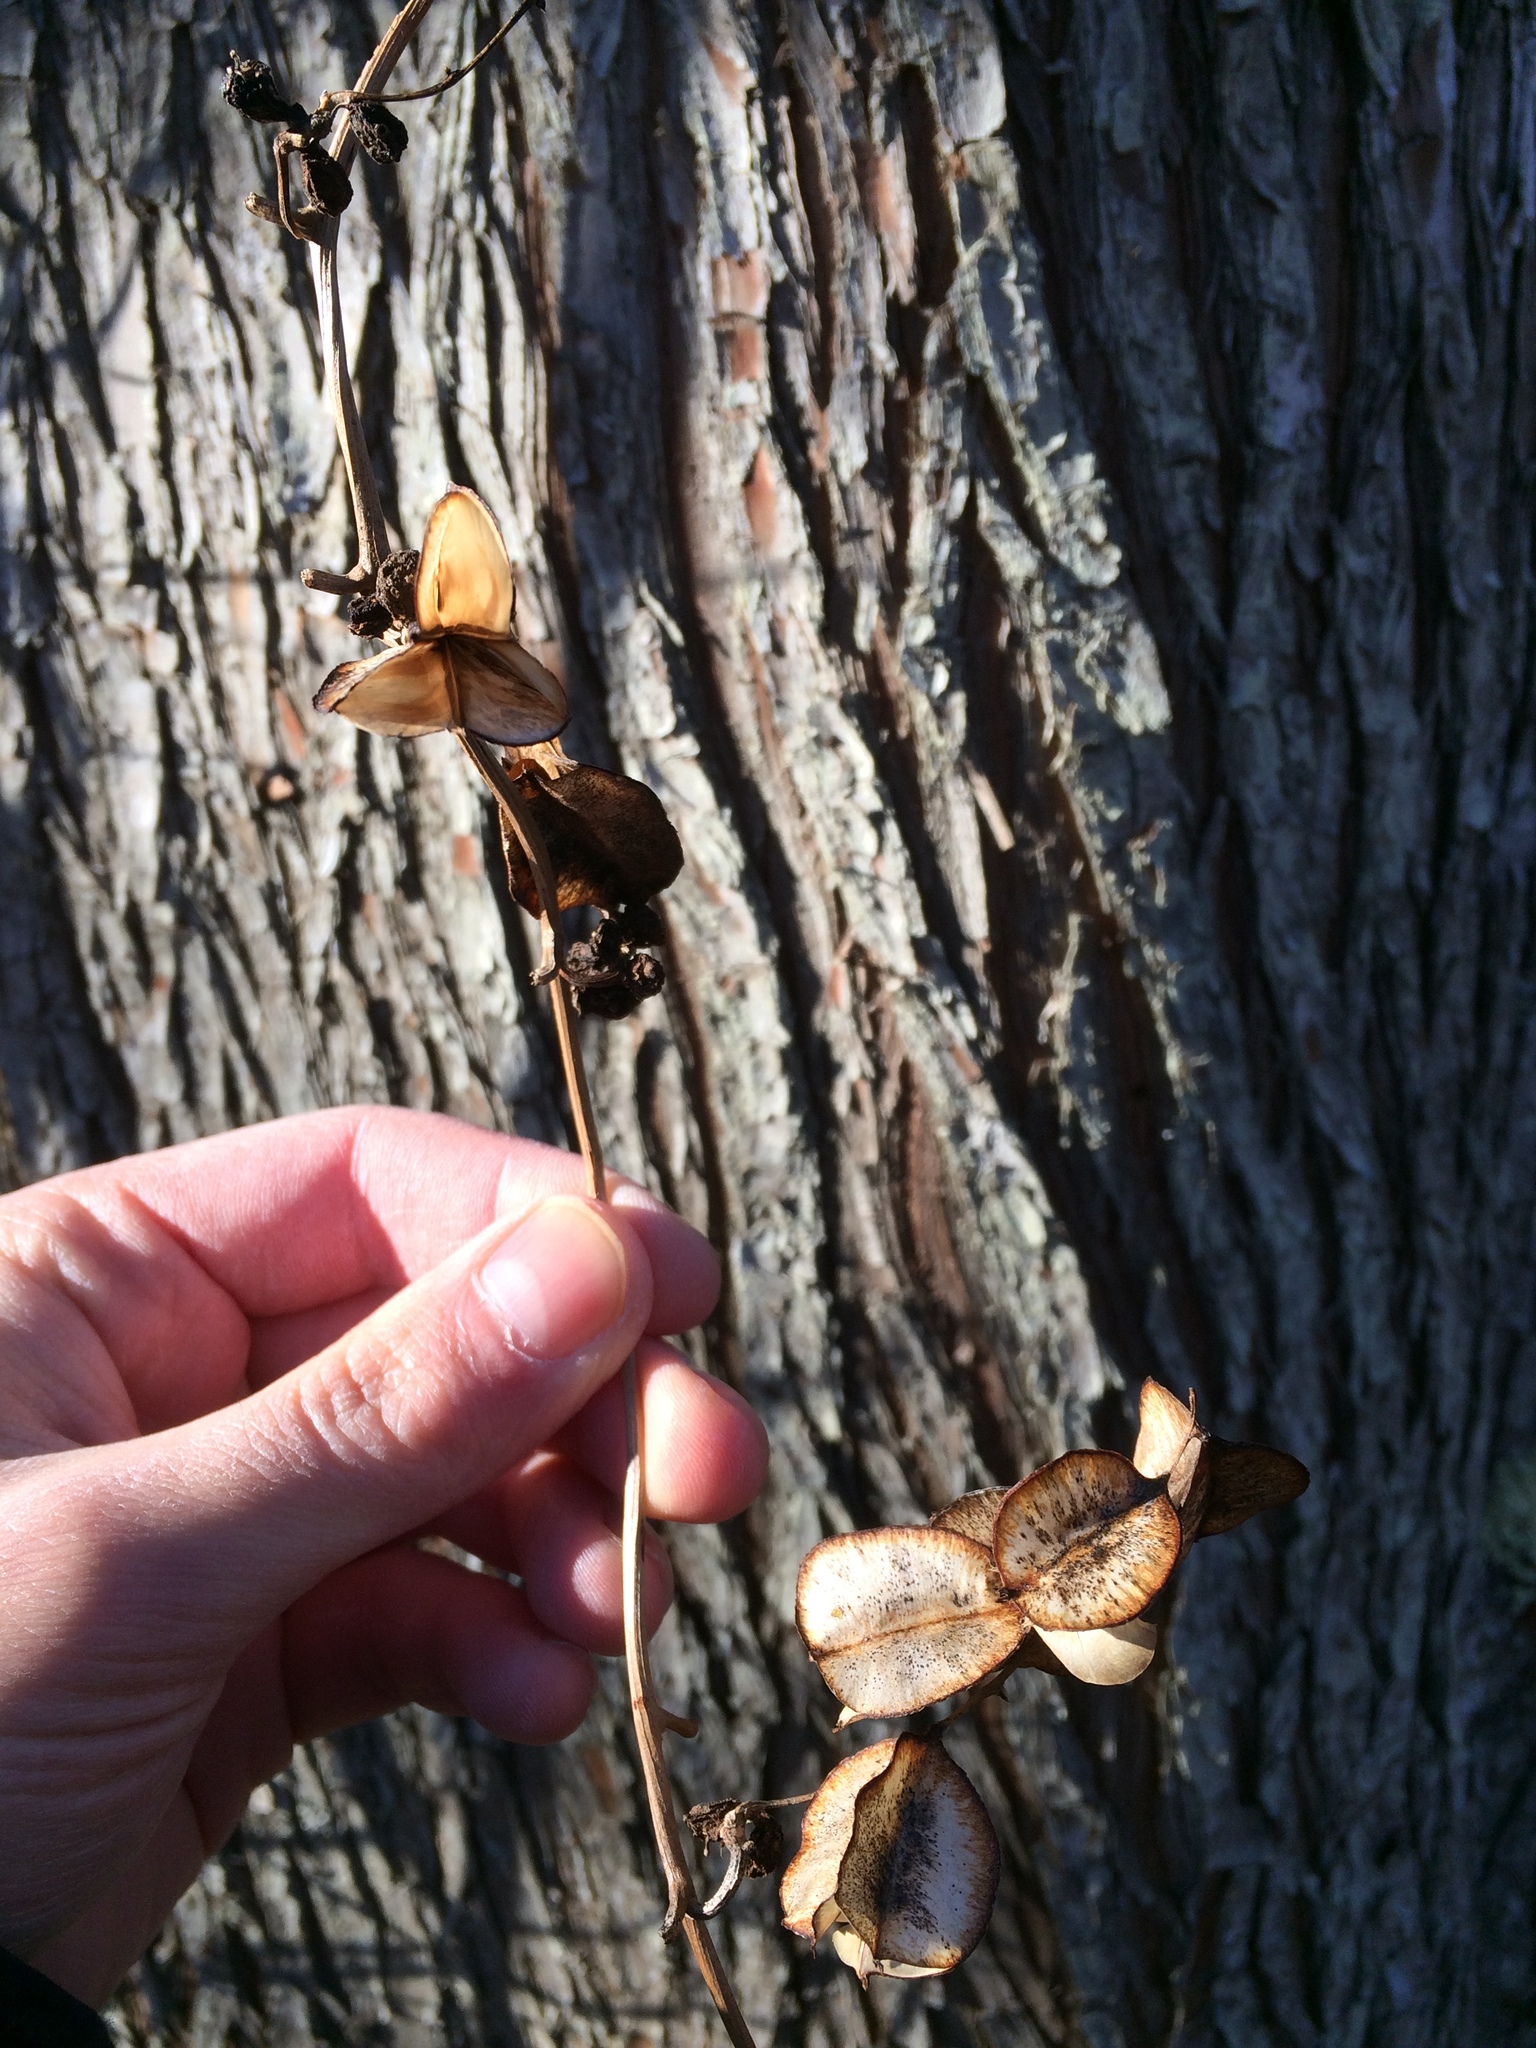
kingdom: Plantae
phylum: Tracheophyta
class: Liliopsida
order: Dioscoreales
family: Dioscoreaceae
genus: Dioscorea
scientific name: Dioscorea villosa
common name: Wild yam
